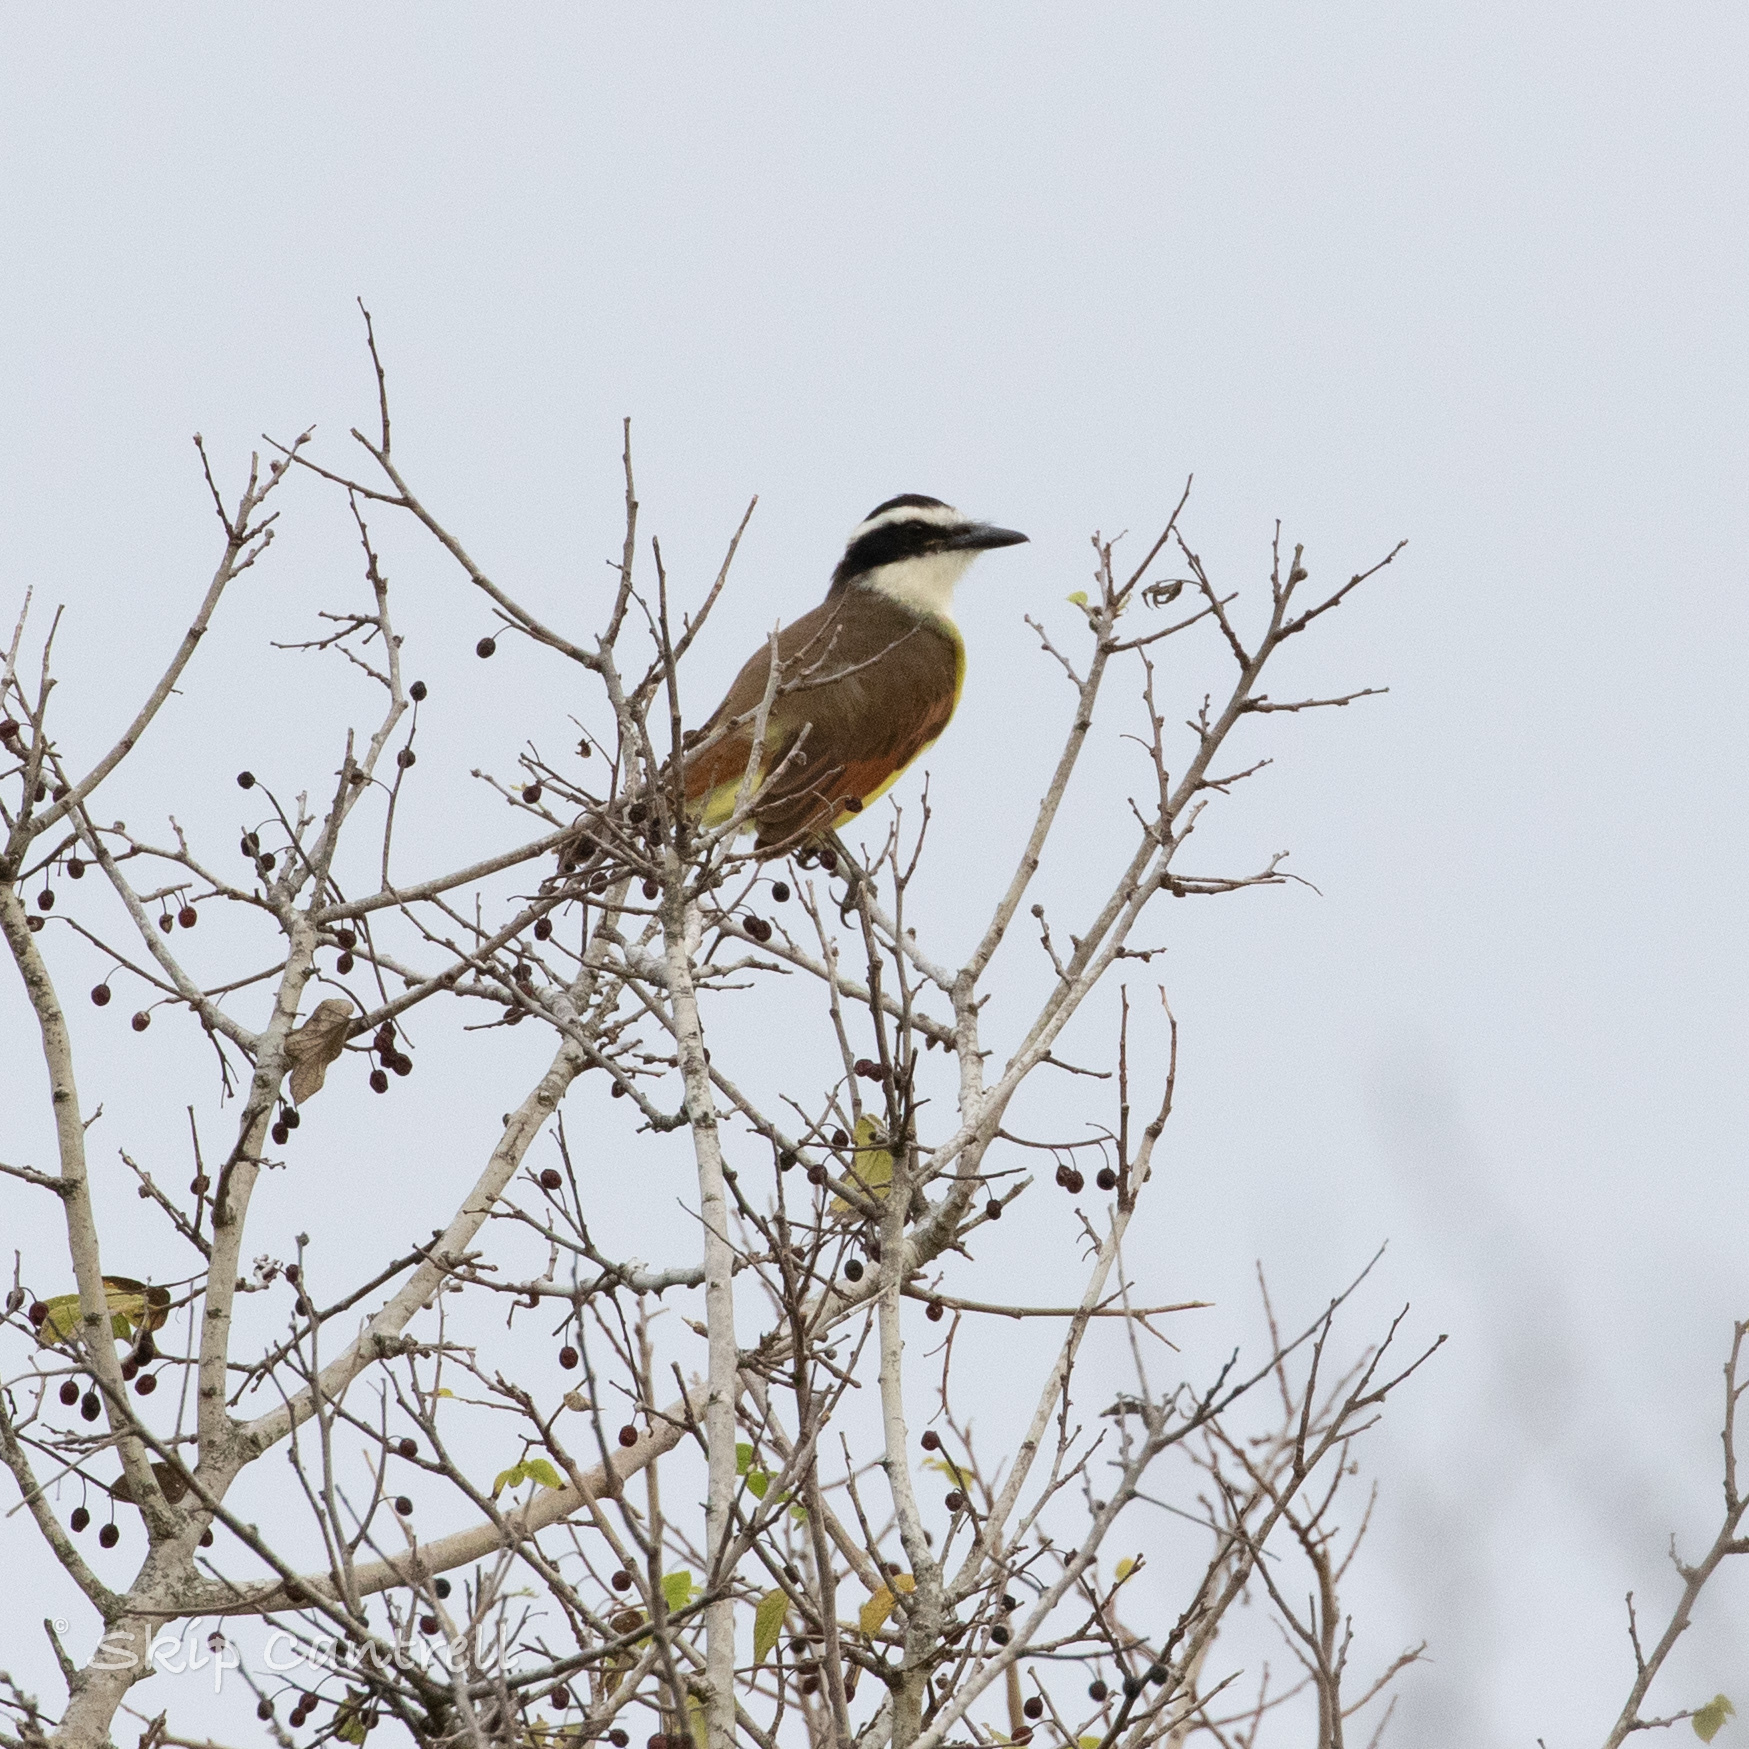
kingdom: Animalia
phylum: Chordata
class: Aves
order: Passeriformes
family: Tyrannidae
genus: Pitangus
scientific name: Pitangus sulphuratus
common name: Great kiskadee
